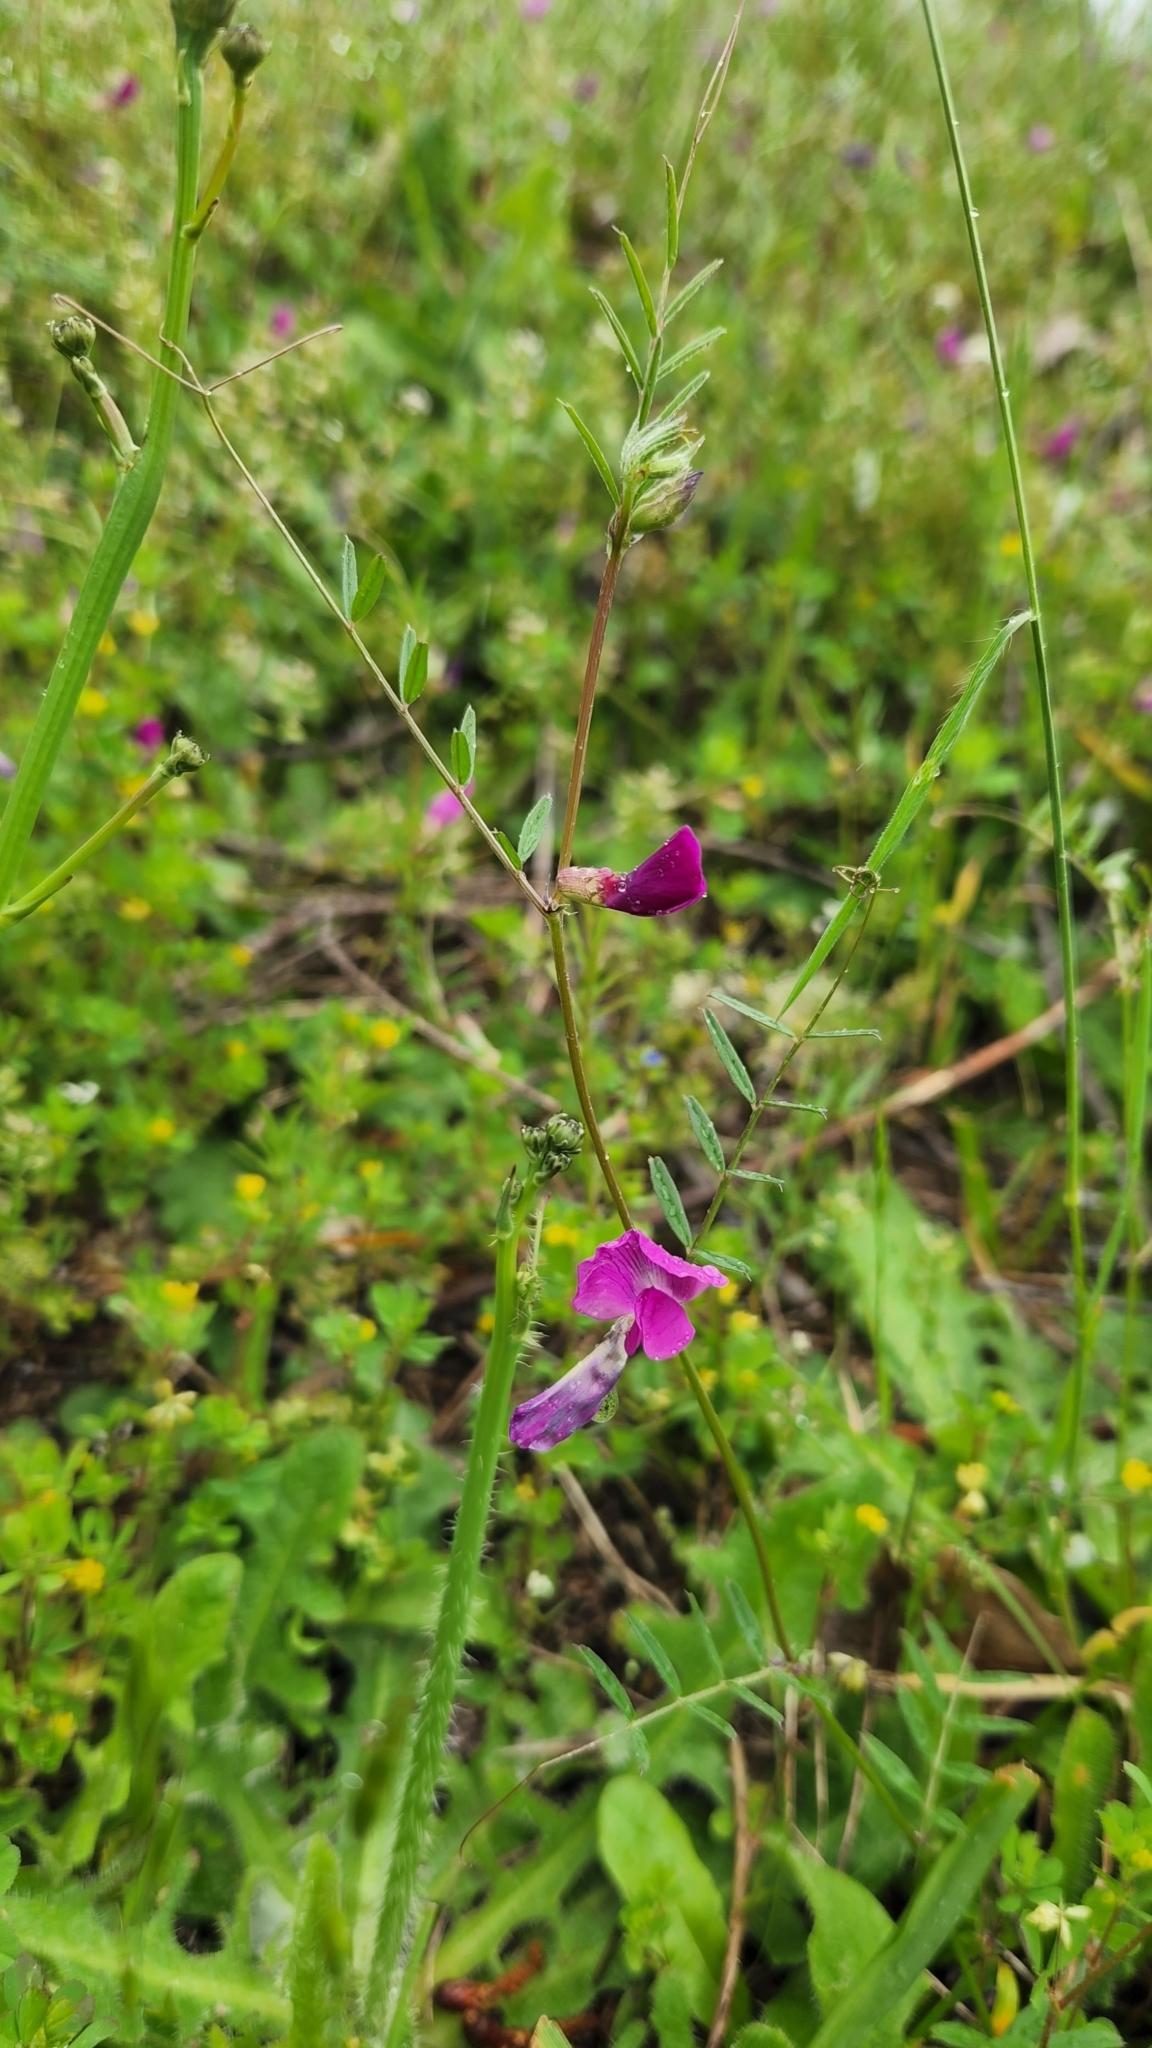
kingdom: Plantae
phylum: Tracheophyta
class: Magnoliopsida
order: Fabales
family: Fabaceae
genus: Vicia
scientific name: Vicia sativa
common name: Garden vetch
